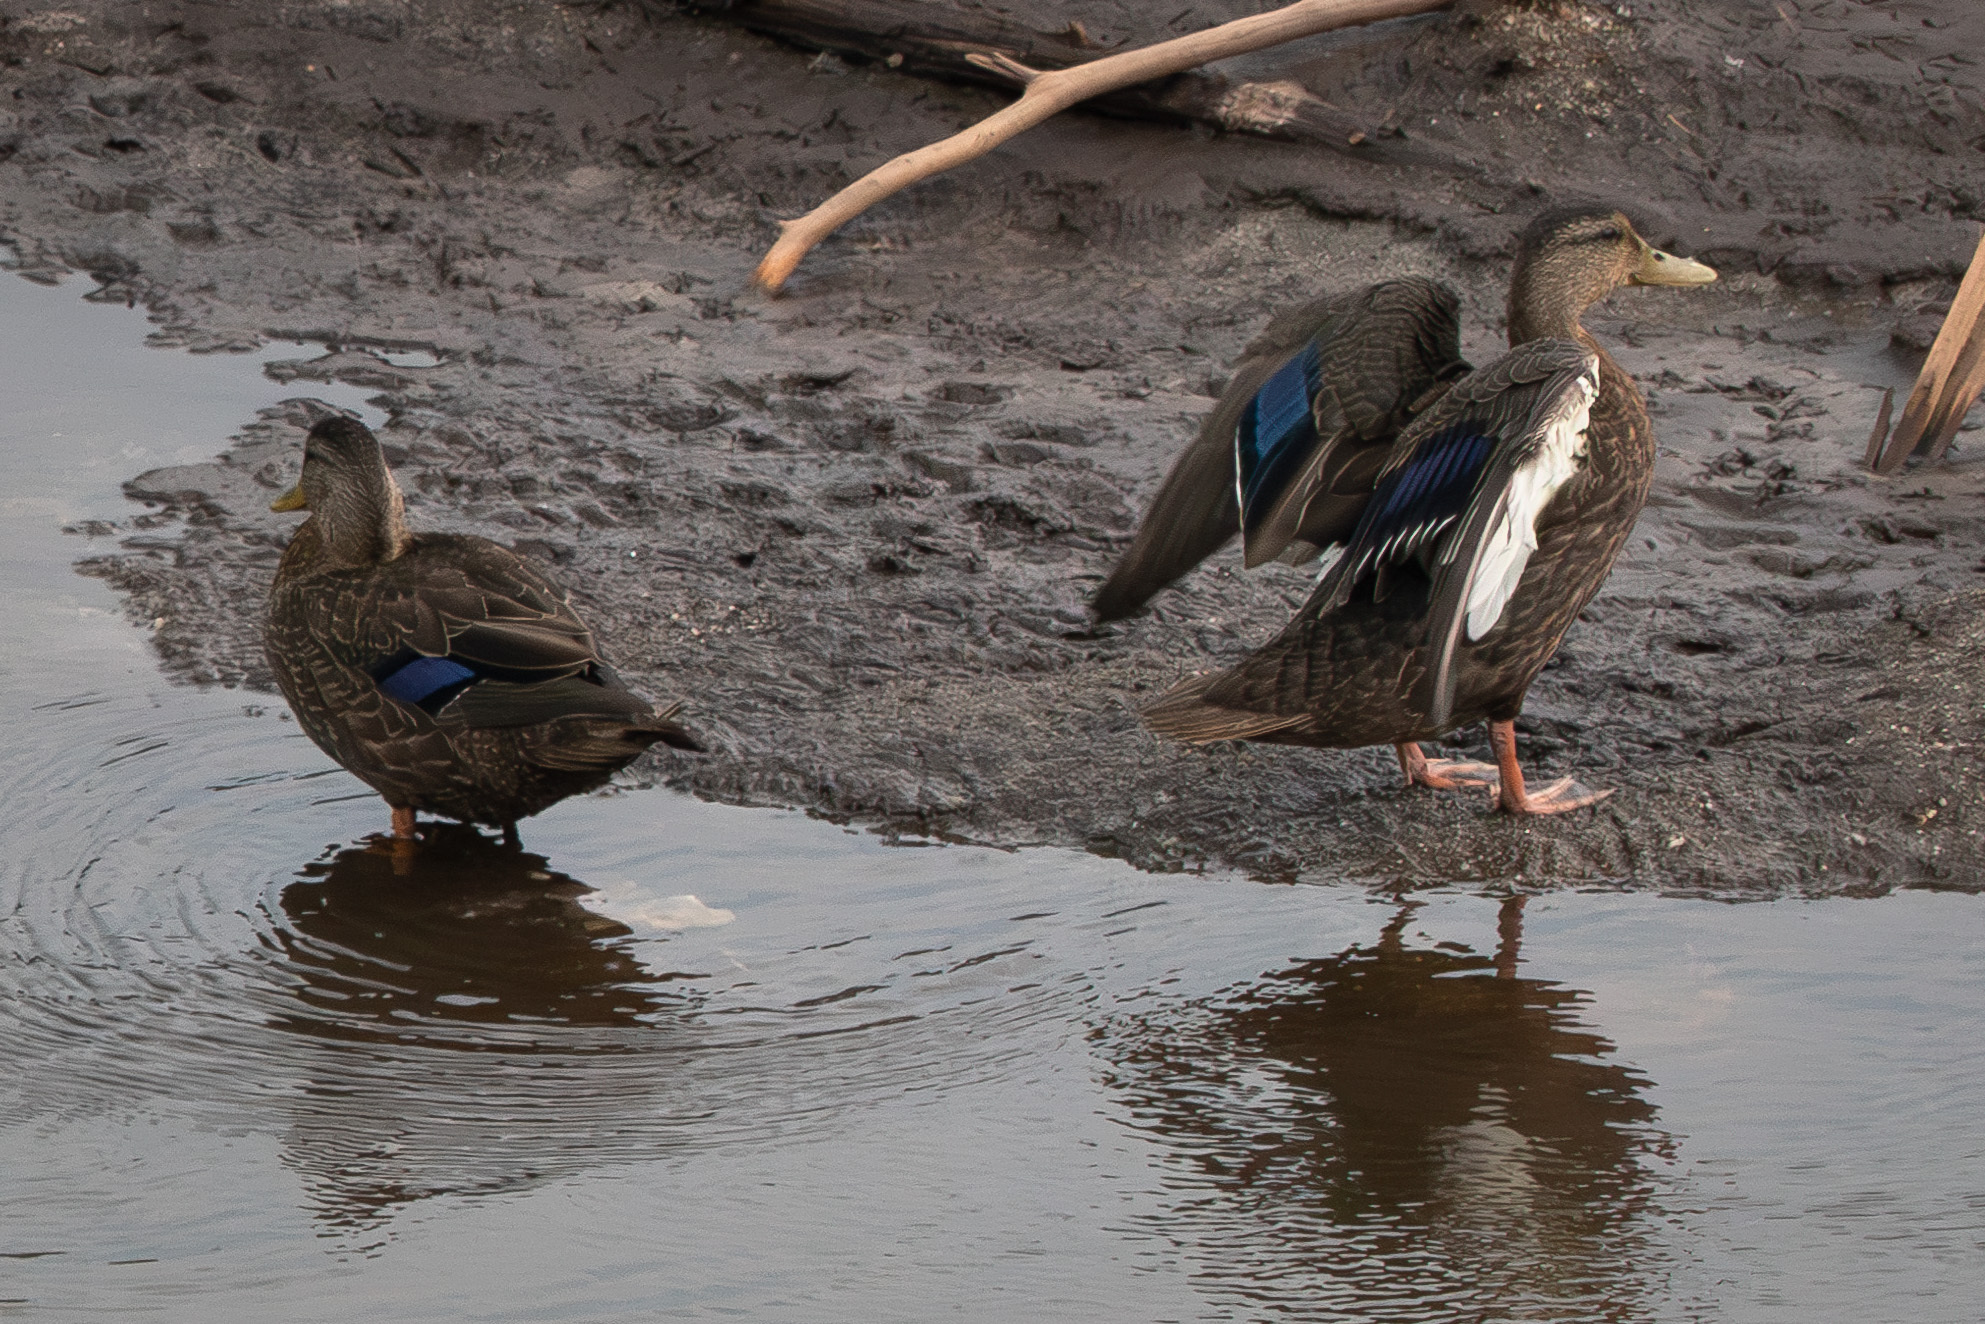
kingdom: Animalia
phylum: Chordata
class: Aves
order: Anseriformes
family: Anatidae
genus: Anas
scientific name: Anas rubripes
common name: American black duck
